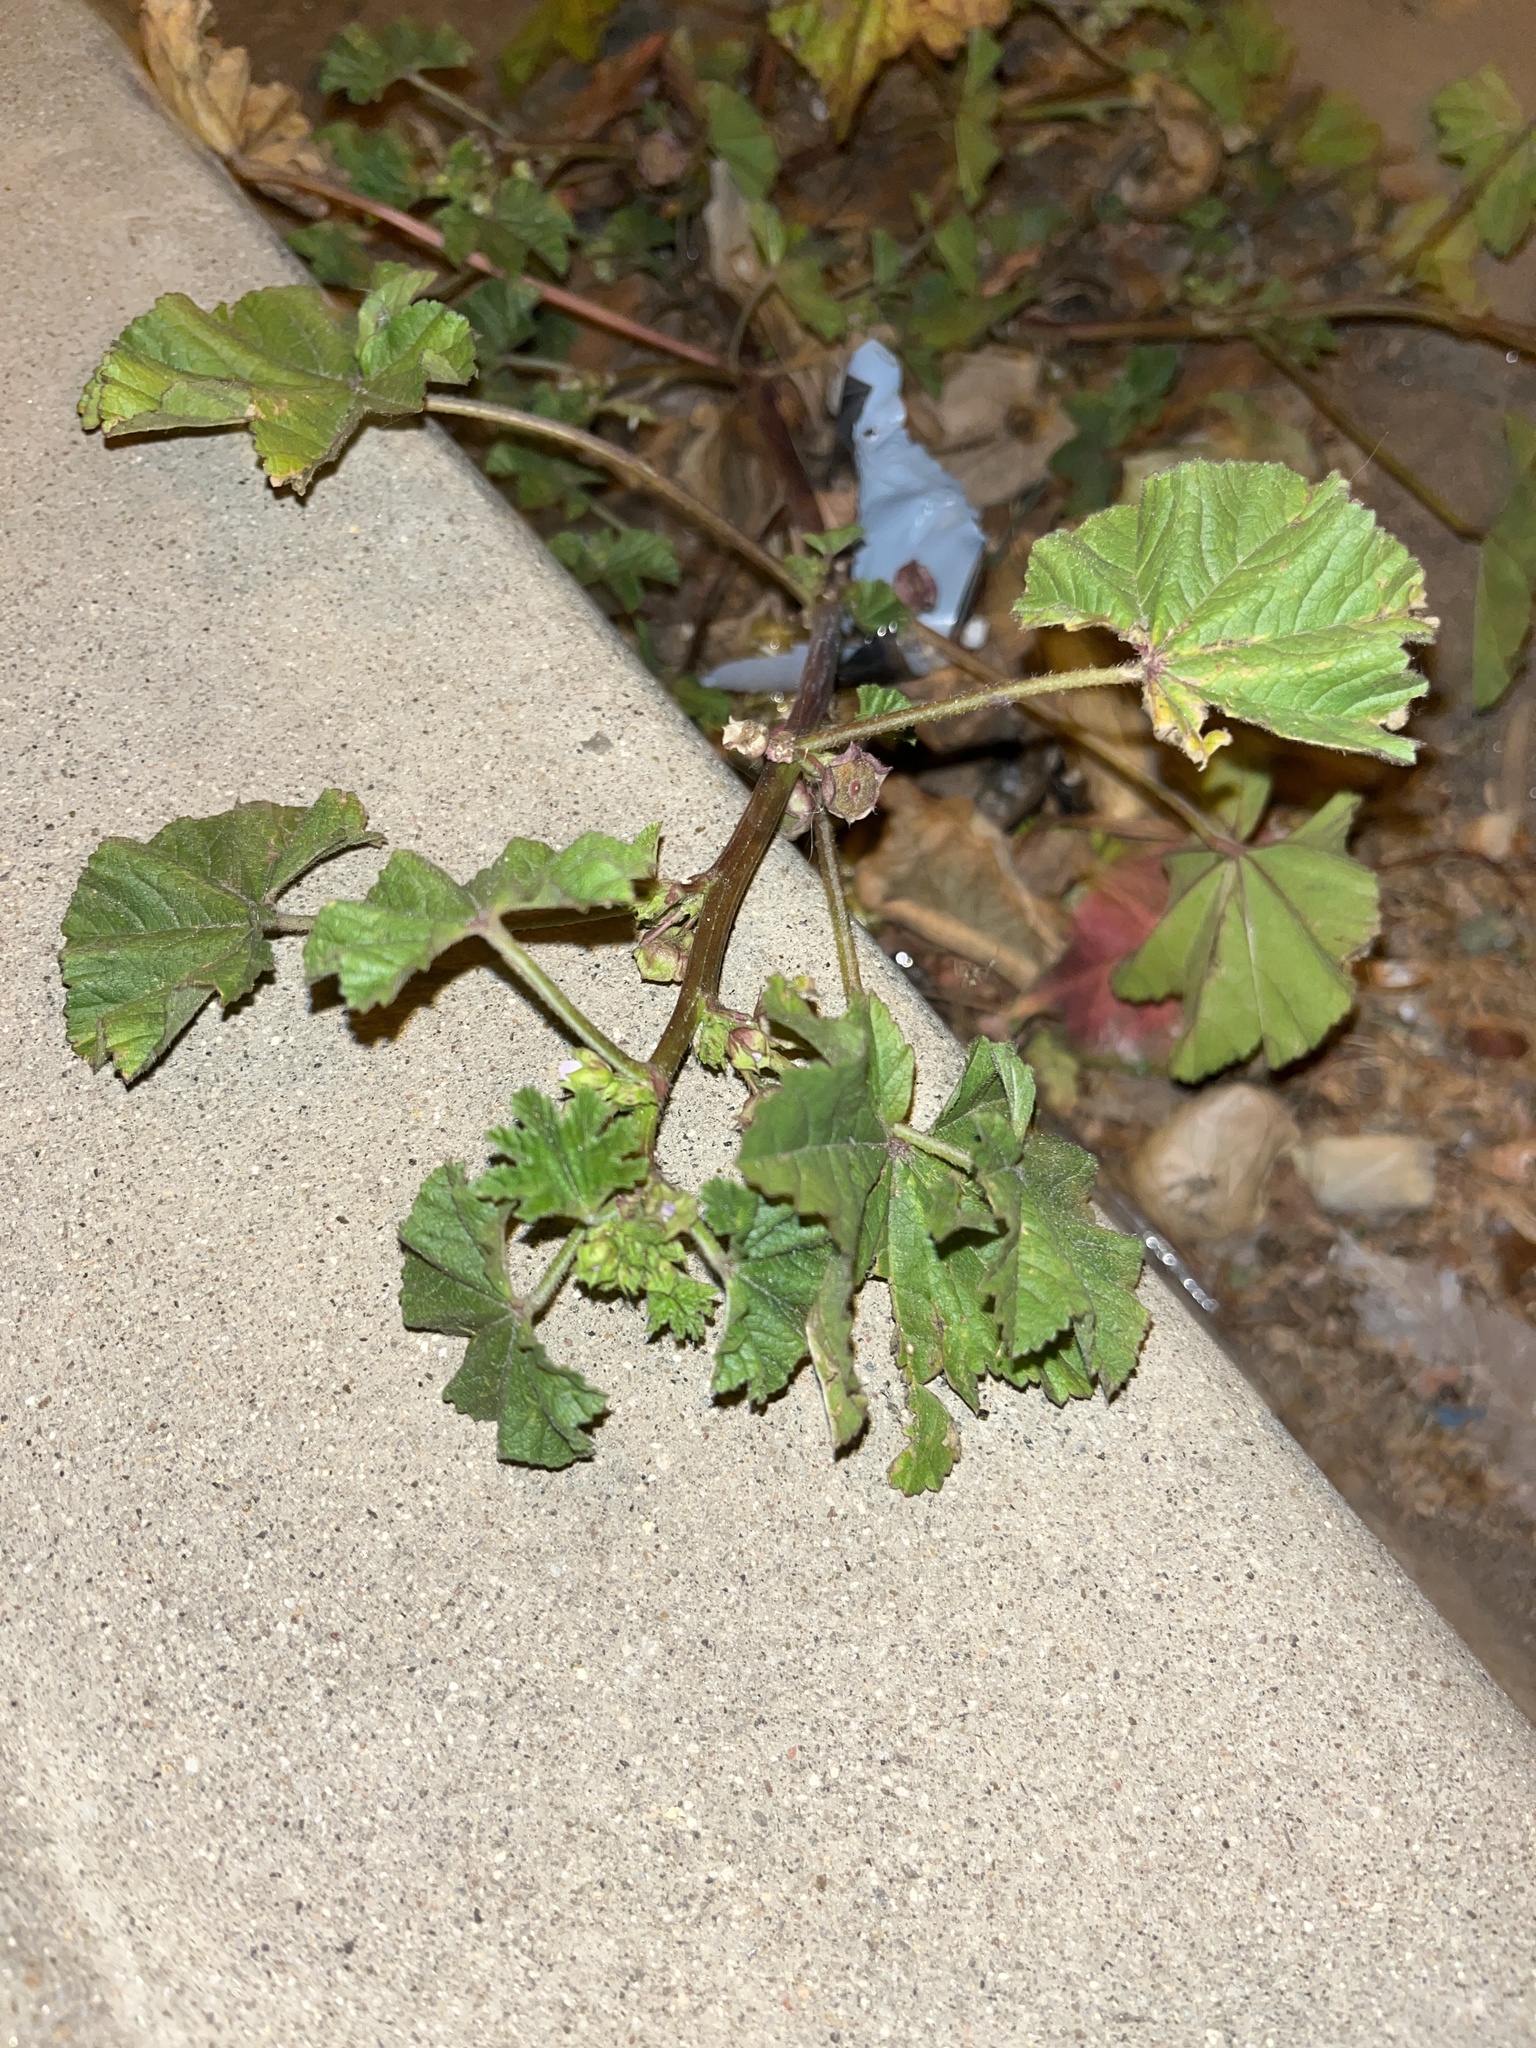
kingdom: Plantae
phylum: Tracheophyta
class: Magnoliopsida
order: Malvales
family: Malvaceae
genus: Malva
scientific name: Malva parviflora
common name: Least mallow
